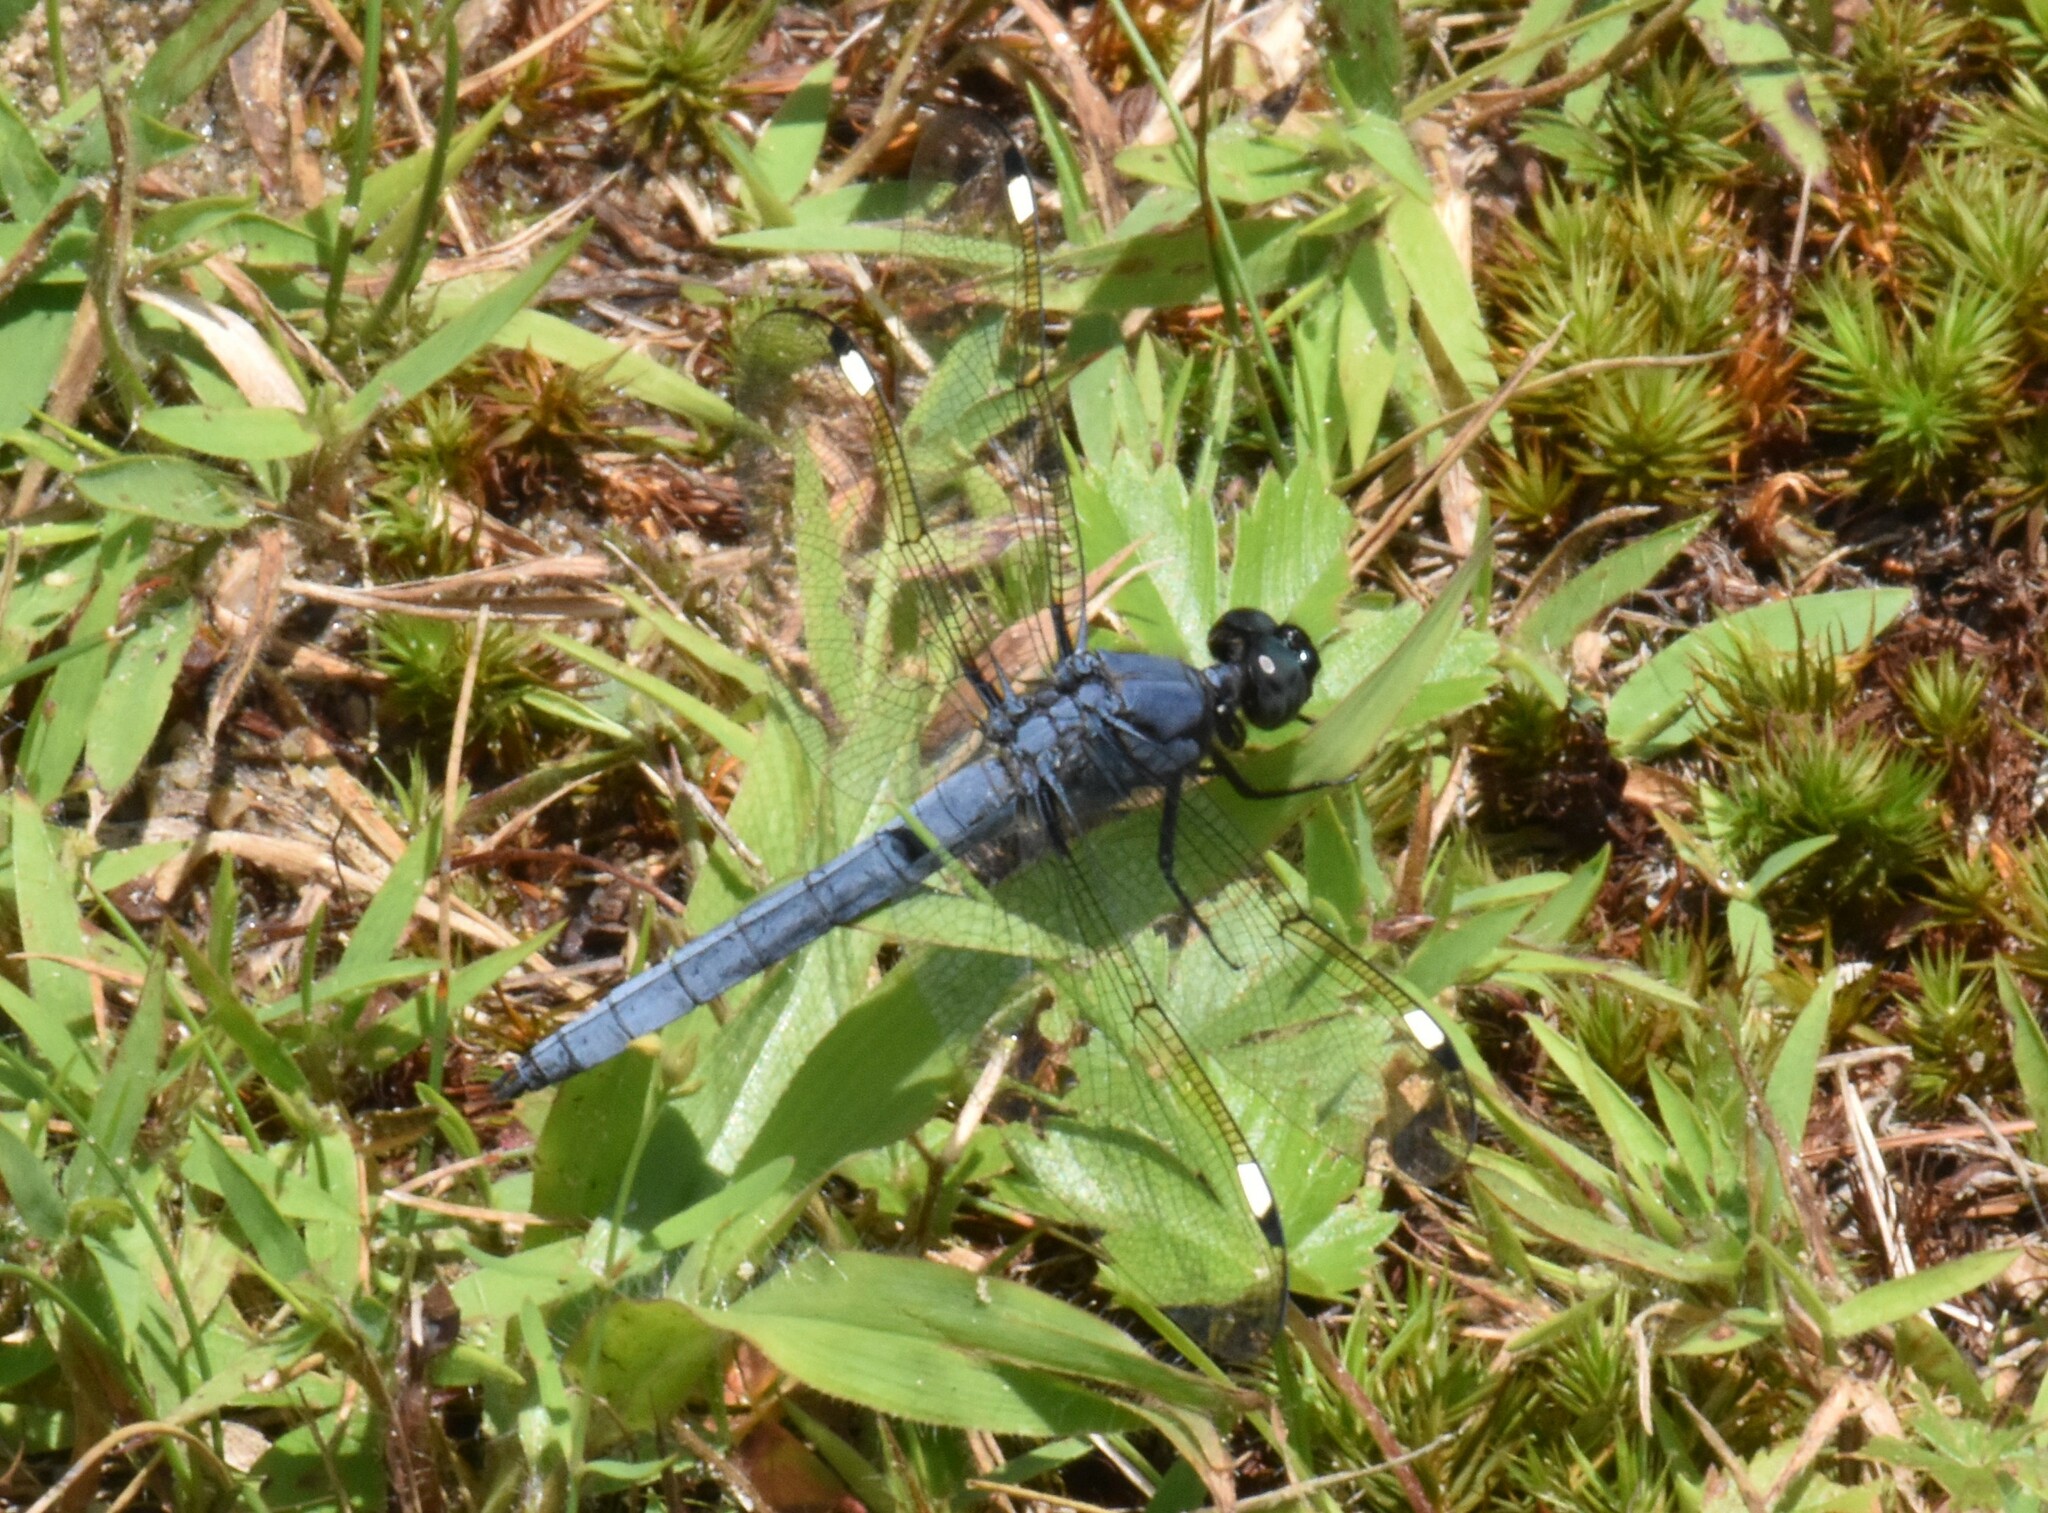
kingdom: Animalia
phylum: Arthropoda
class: Insecta
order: Odonata
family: Libellulidae
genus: Libellula
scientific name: Libellula cyanea
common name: Spangled skimmer
